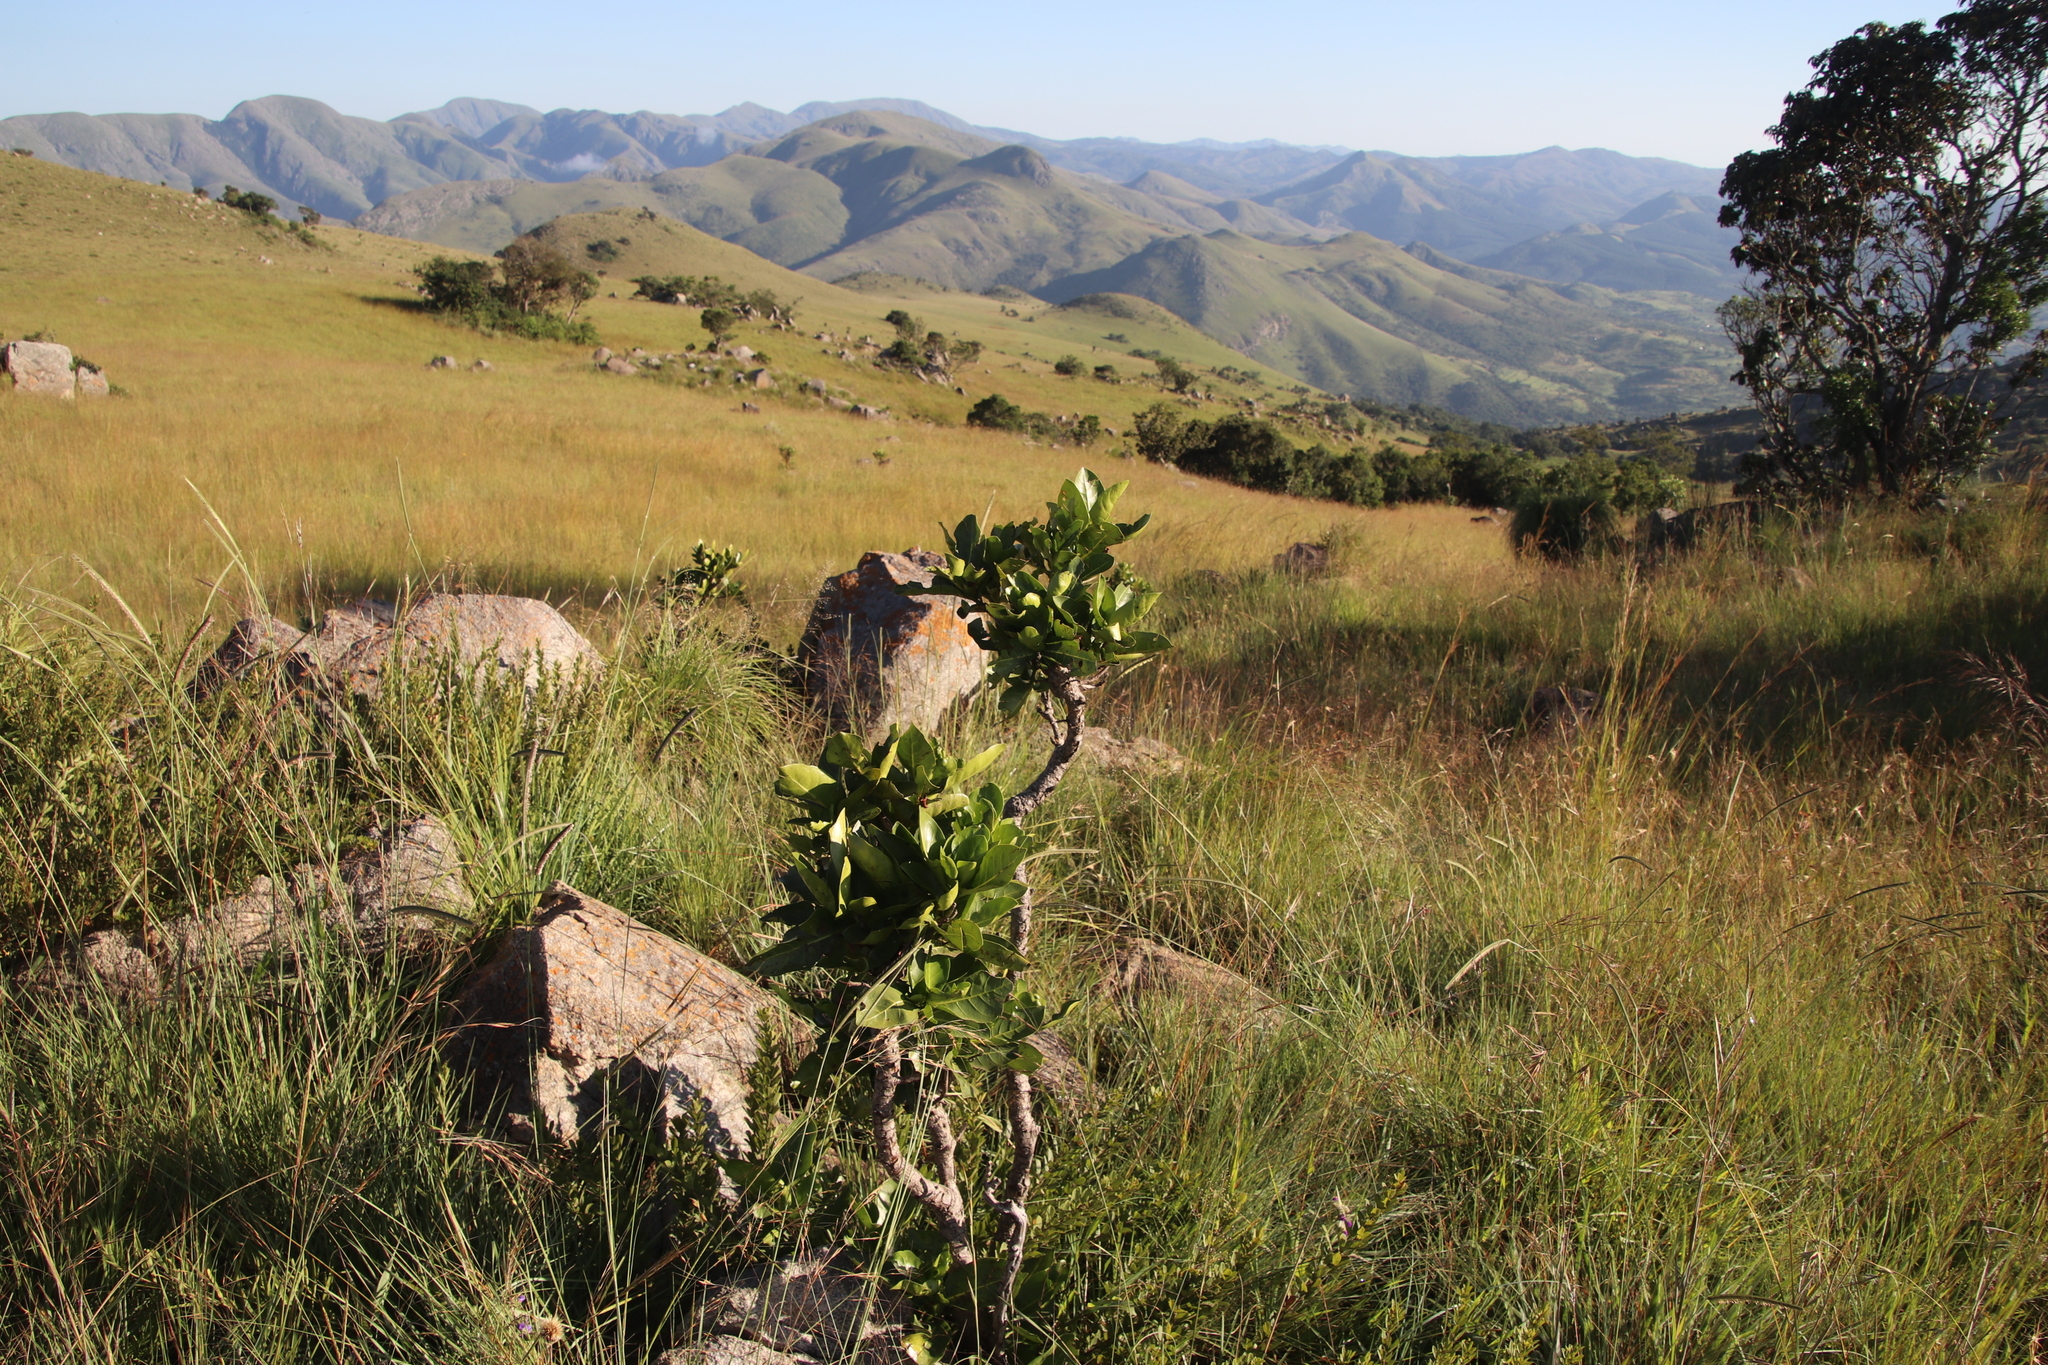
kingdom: Plantae
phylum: Tracheophyta
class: Magnoliopsida
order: Gentianales
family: Rubiaceae
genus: Psychotria
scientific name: Psychotria
